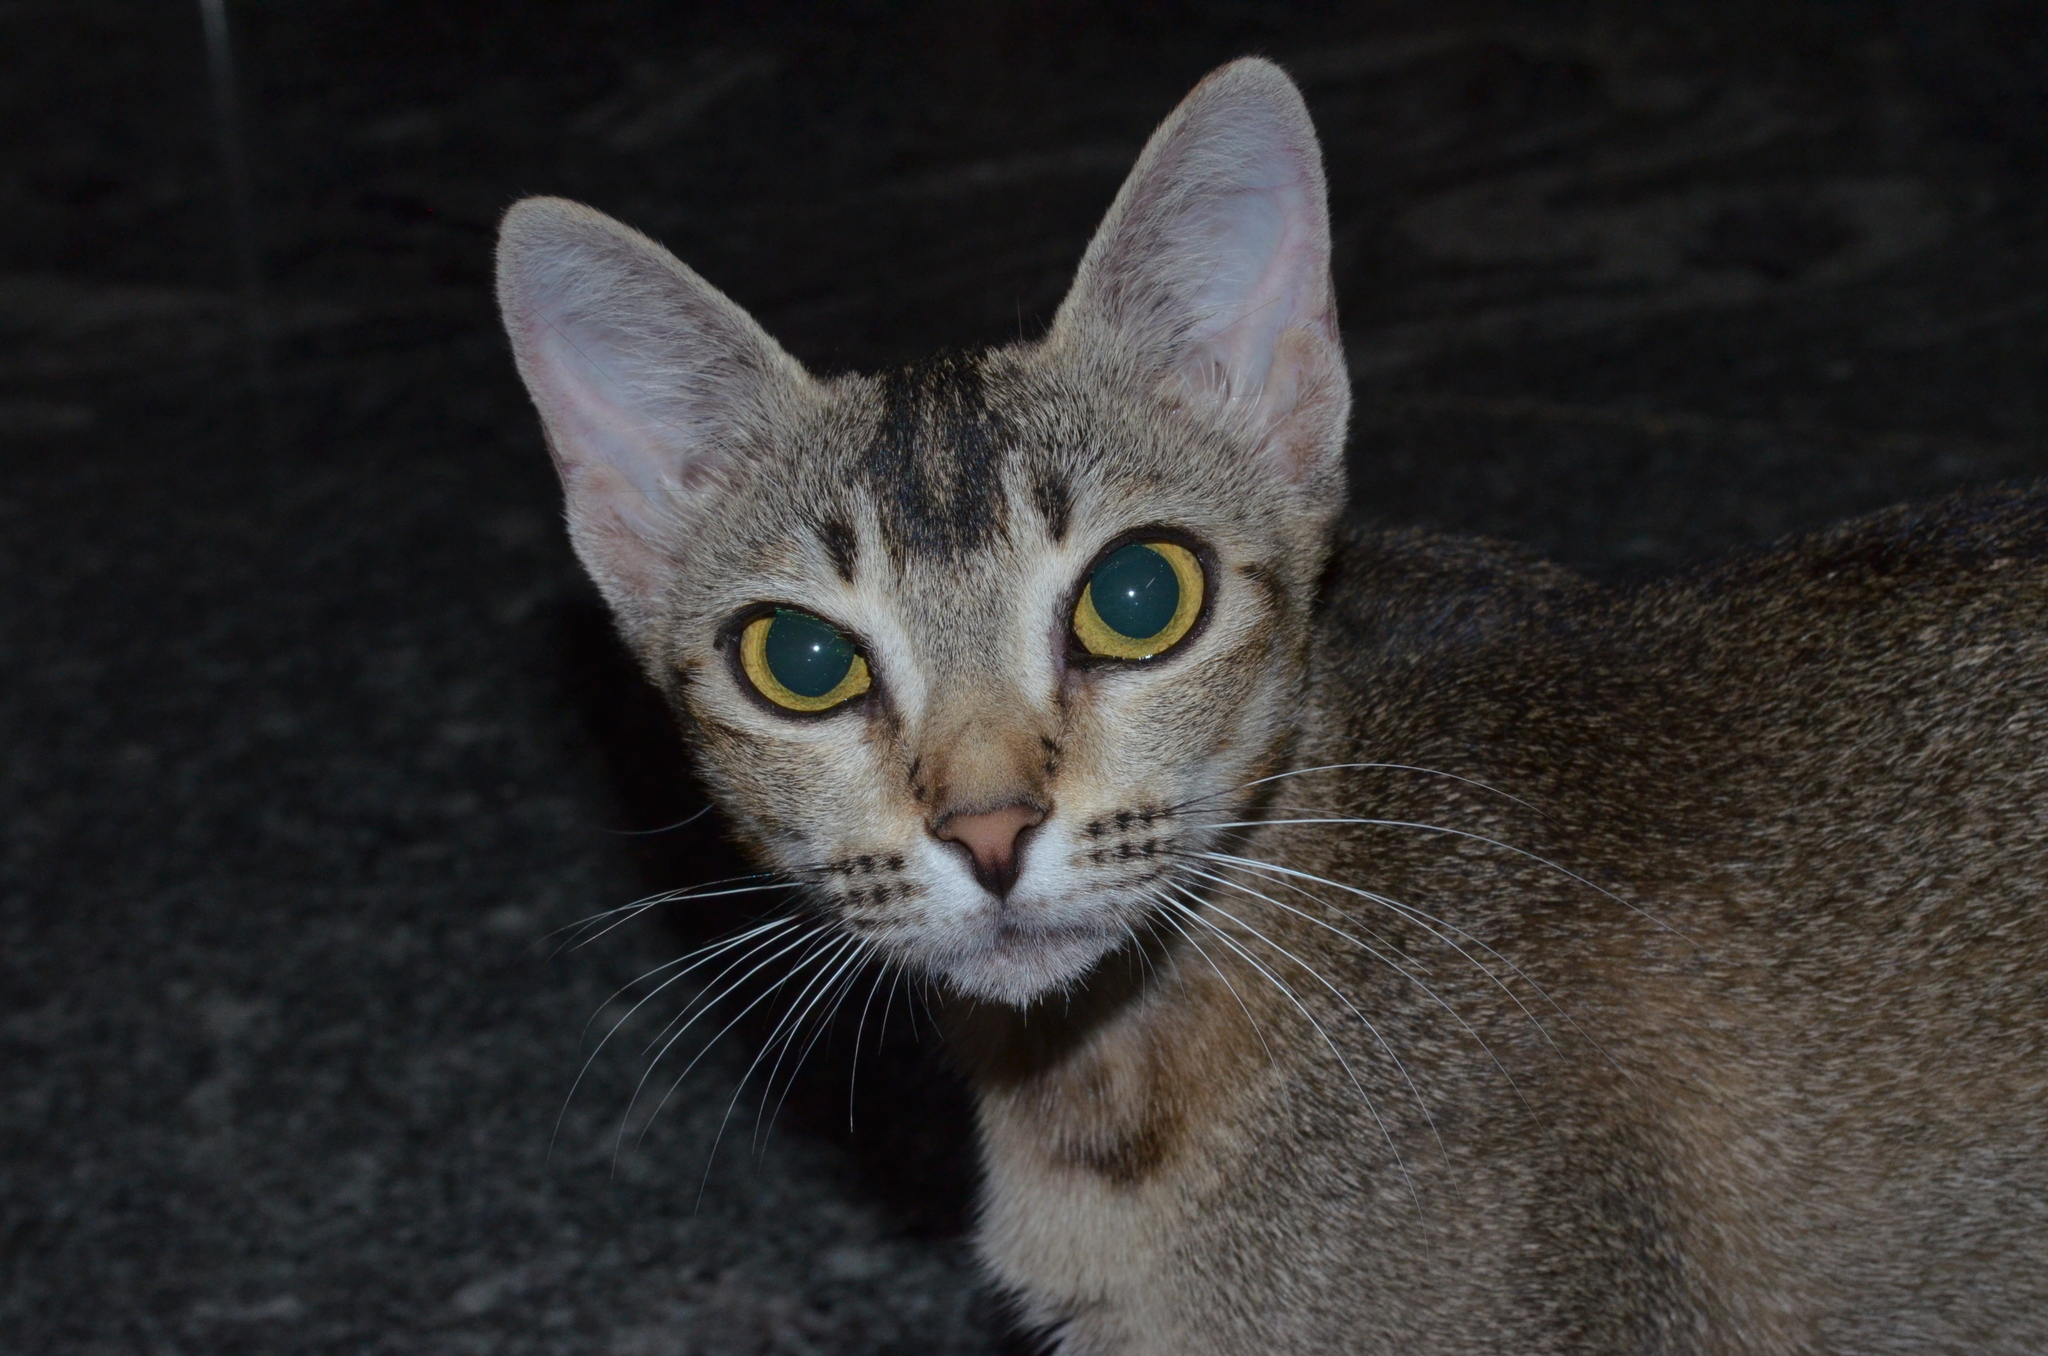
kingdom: Animalia
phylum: Chordata
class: Mammalia
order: Carnivora
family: Felidae
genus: Felis
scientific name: Felis catus
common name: Domestic cat
